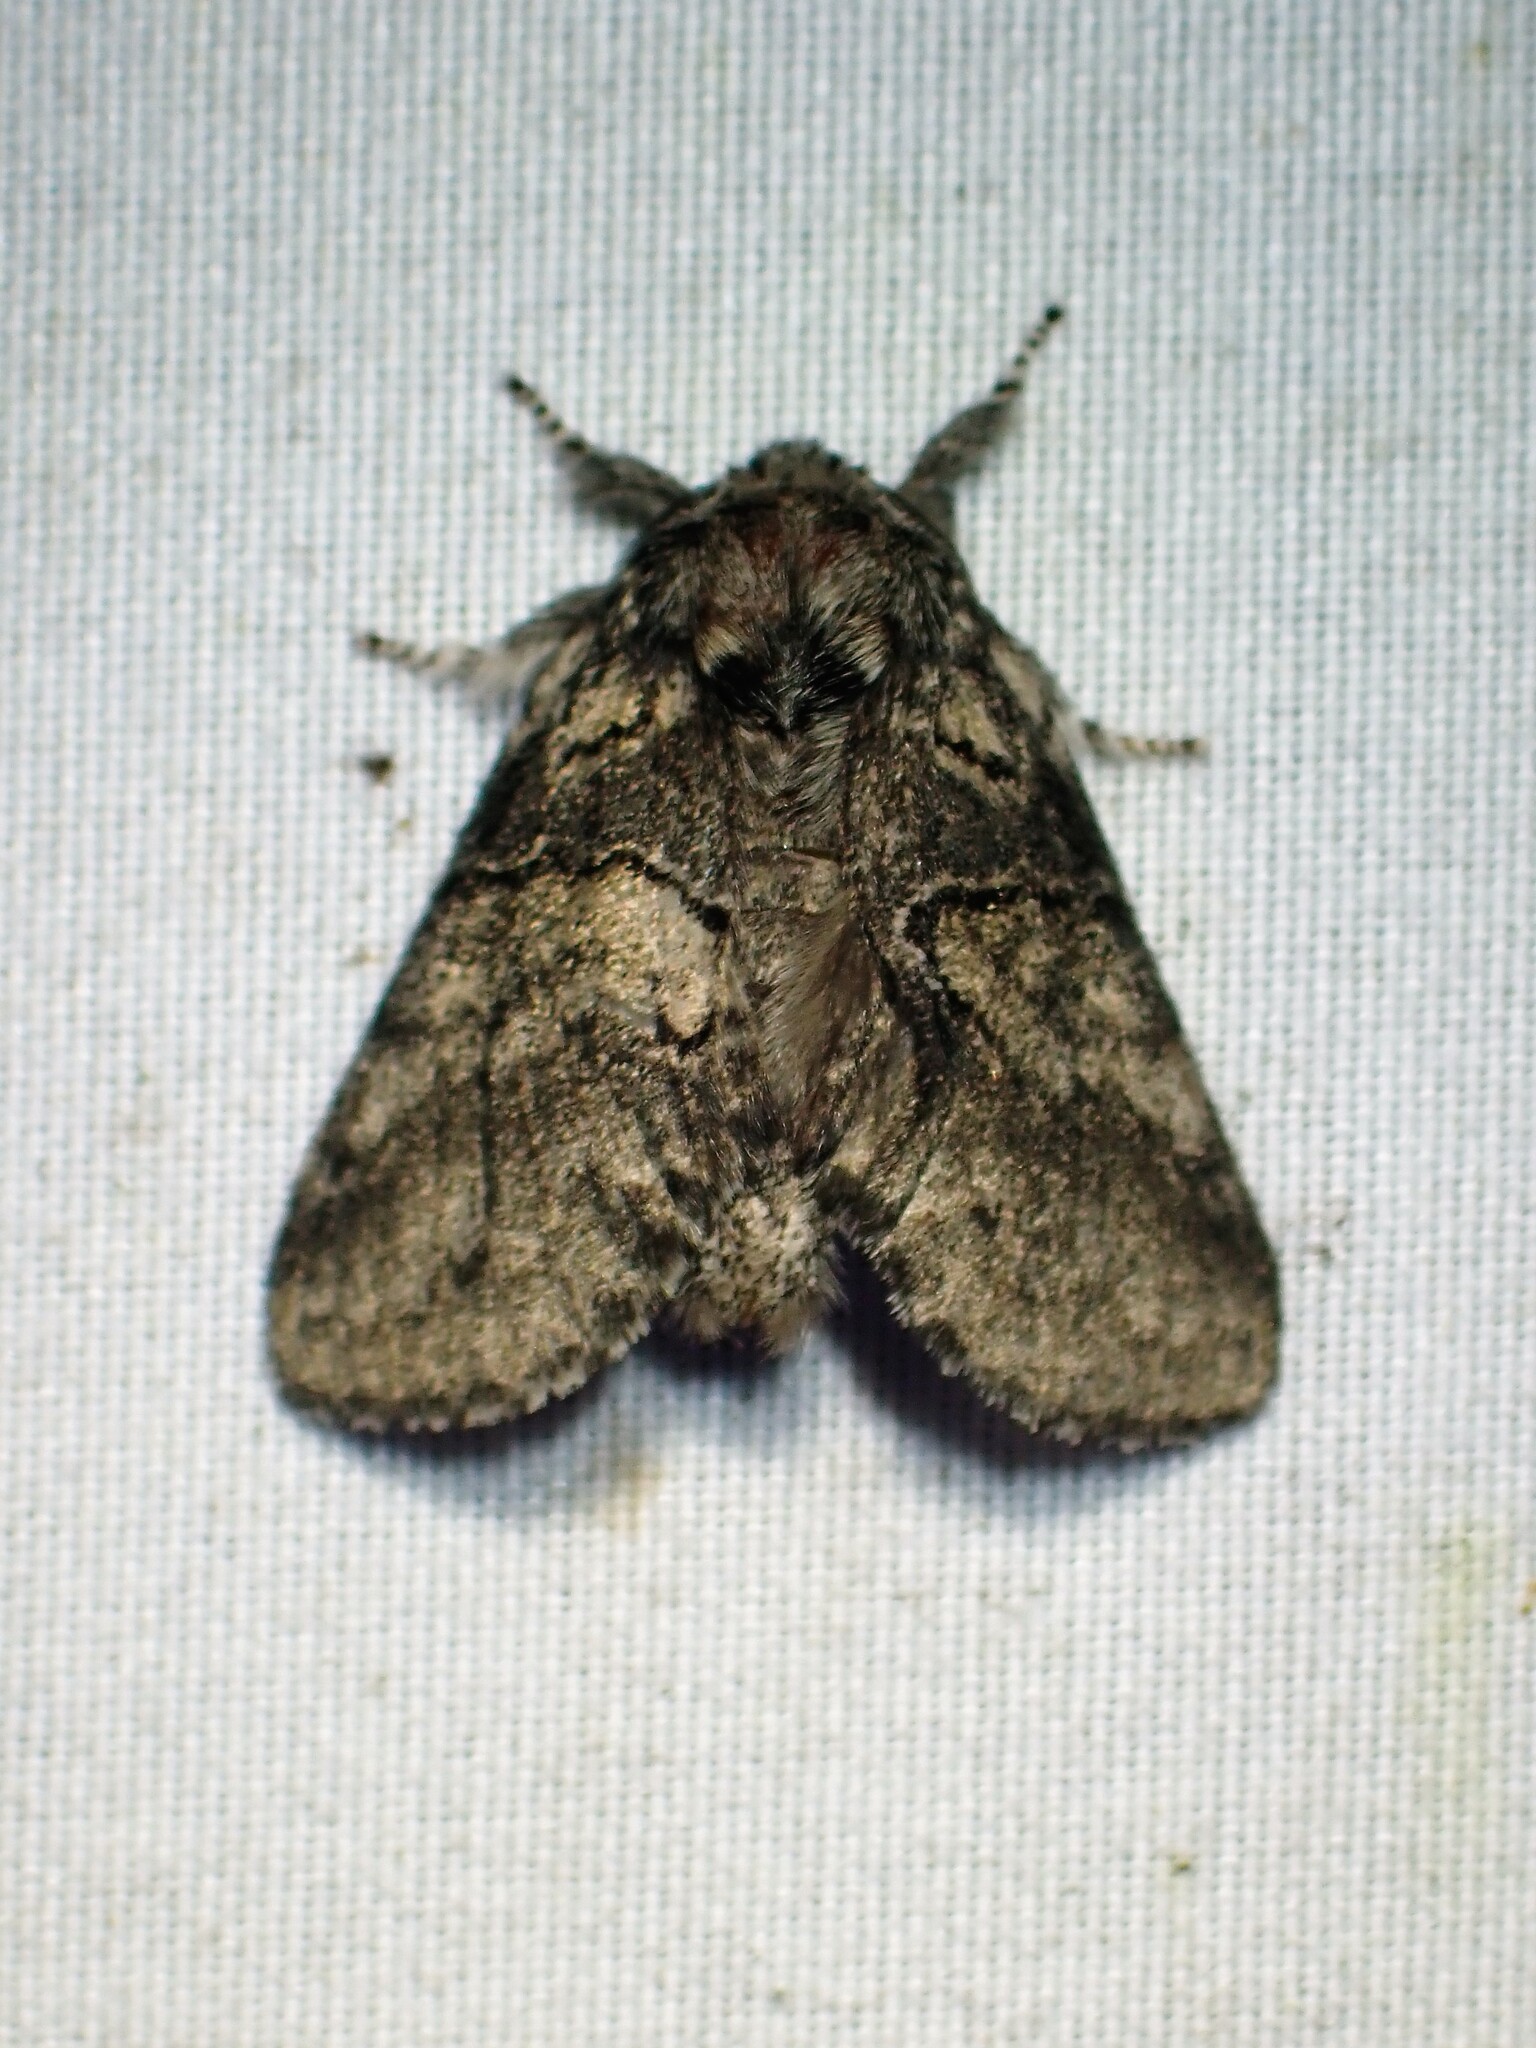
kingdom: Animalia
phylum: Arthropoda
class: Insecta
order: Lepidoptera
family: Notodontidae
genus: Gluphisia
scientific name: Gluphisia septentrionis
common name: Common gluphisia
